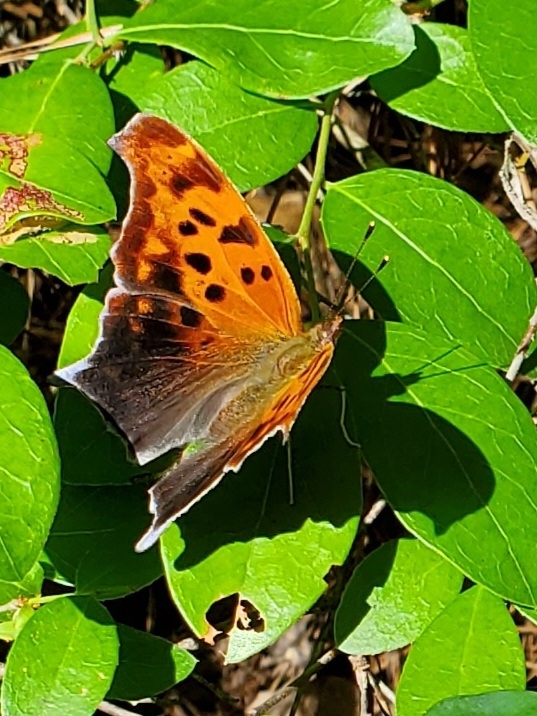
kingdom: Animalia
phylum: Arthropoda
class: Insecta
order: Lepidoptera
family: Nymphalidae
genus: Polygonia
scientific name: Polygonia interrogationis
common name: Question mark
